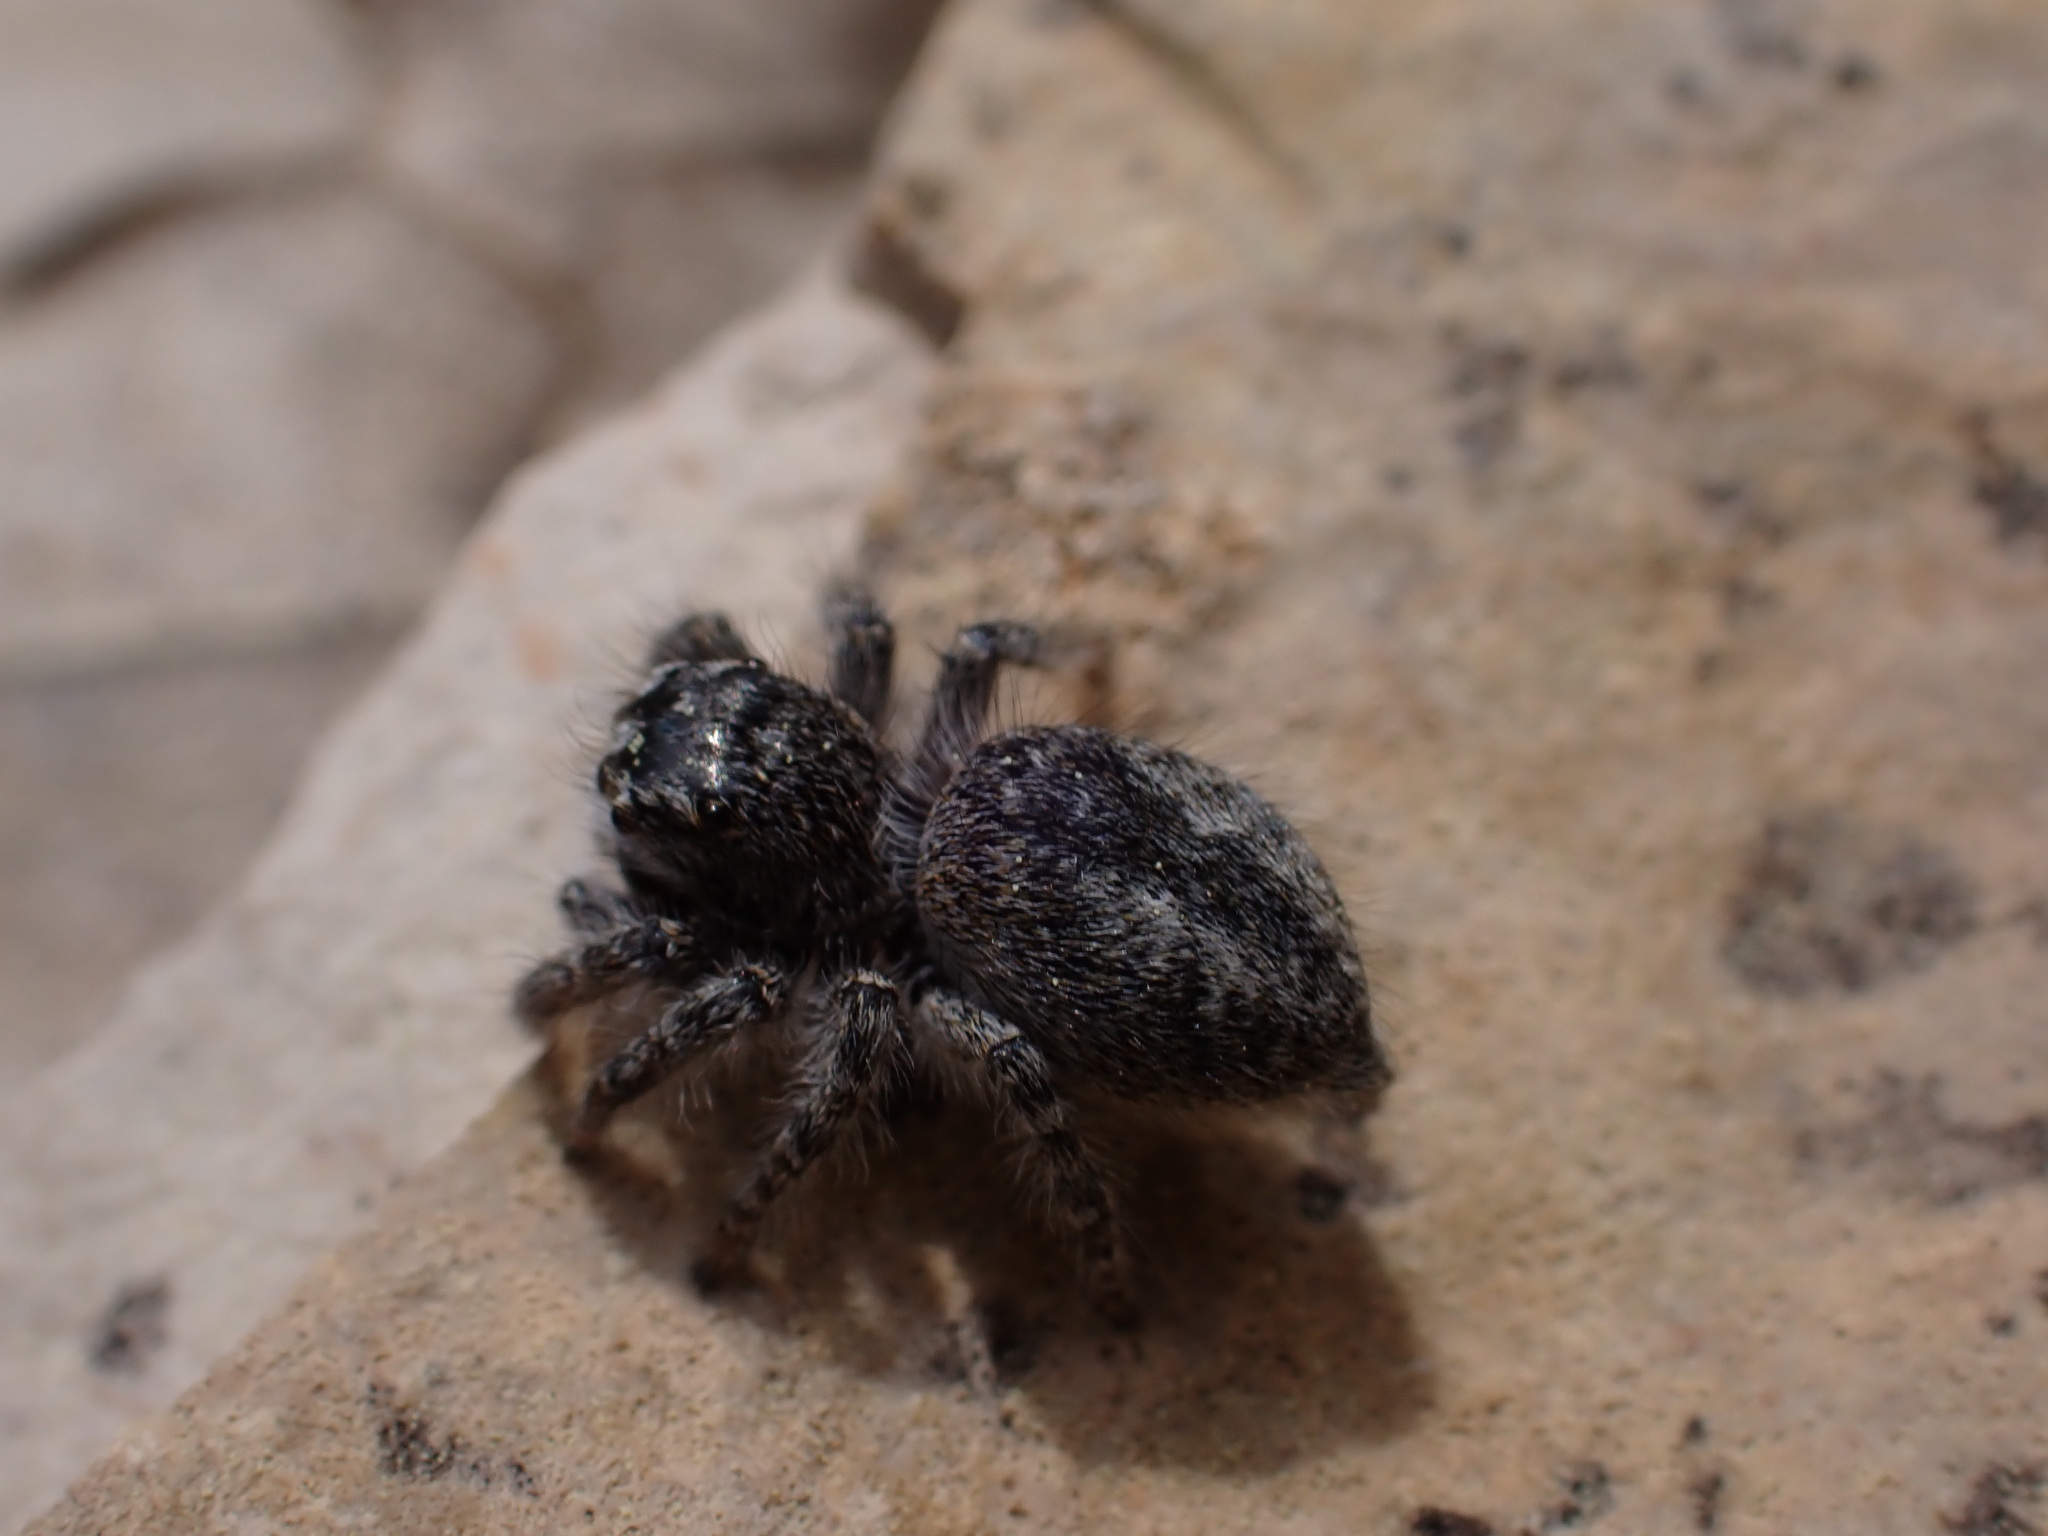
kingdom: Animalia
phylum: Arthropoda
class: Arachnida
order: Araneae
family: Salticidae
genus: Philaeus
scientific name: Philaeus chrysops
